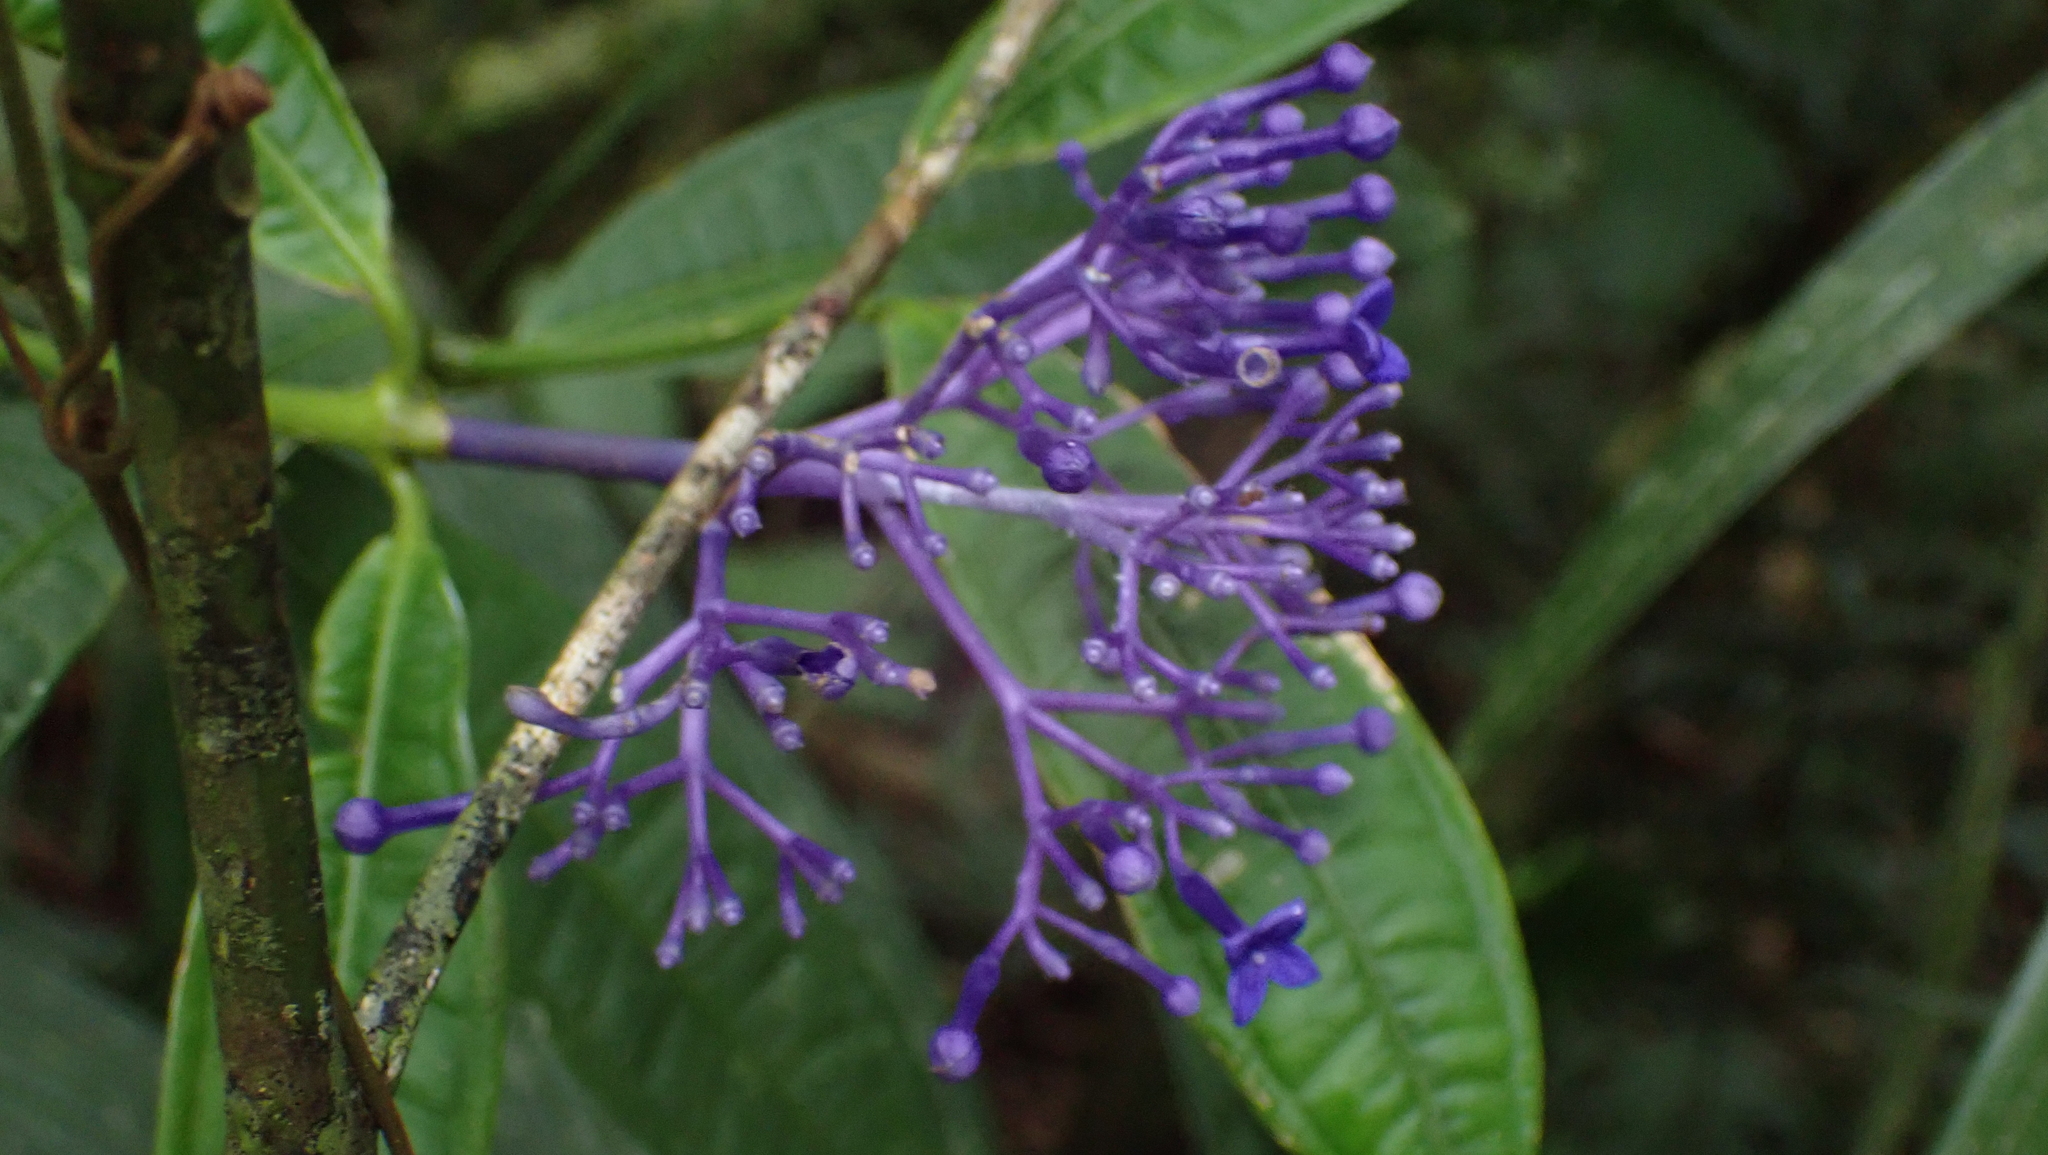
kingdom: Plantae
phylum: Tracheophyta
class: Magnoliopsida
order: Gentianales
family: Rubiaceae
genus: Faramea
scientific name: Faramea suerrensis
